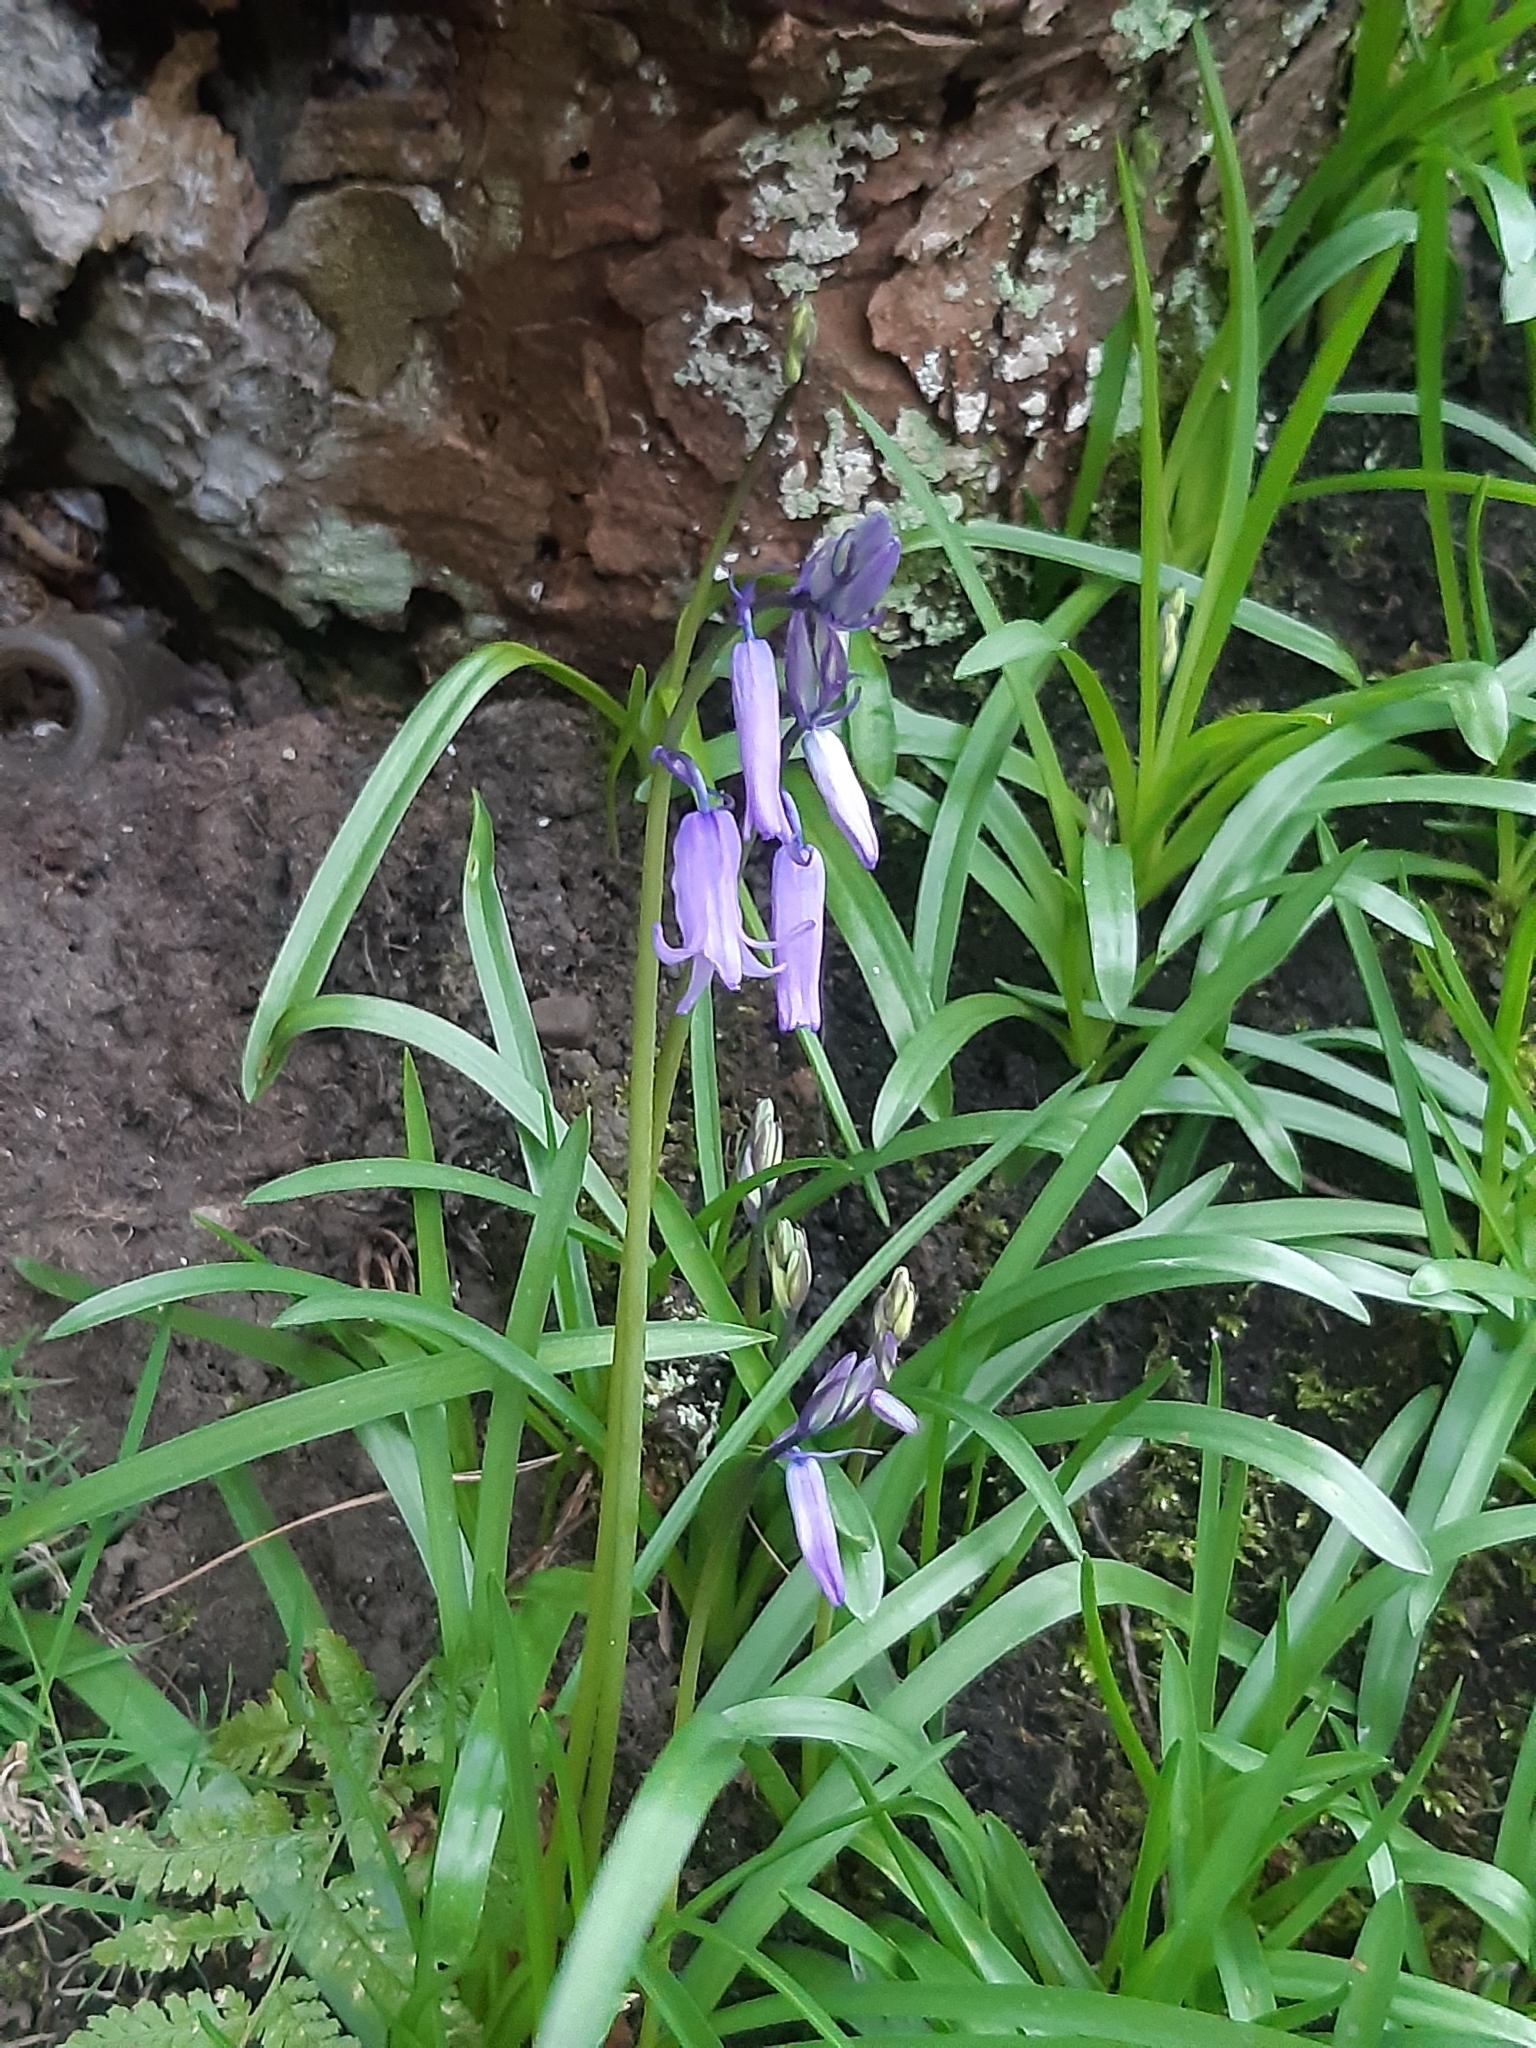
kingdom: Plantae
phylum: Tracheophyta
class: Liliopsida
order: Asparagales
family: Asparagaceae
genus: Hyacinthoides
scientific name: Hyacinthoides non-scripta
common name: Bluebell
